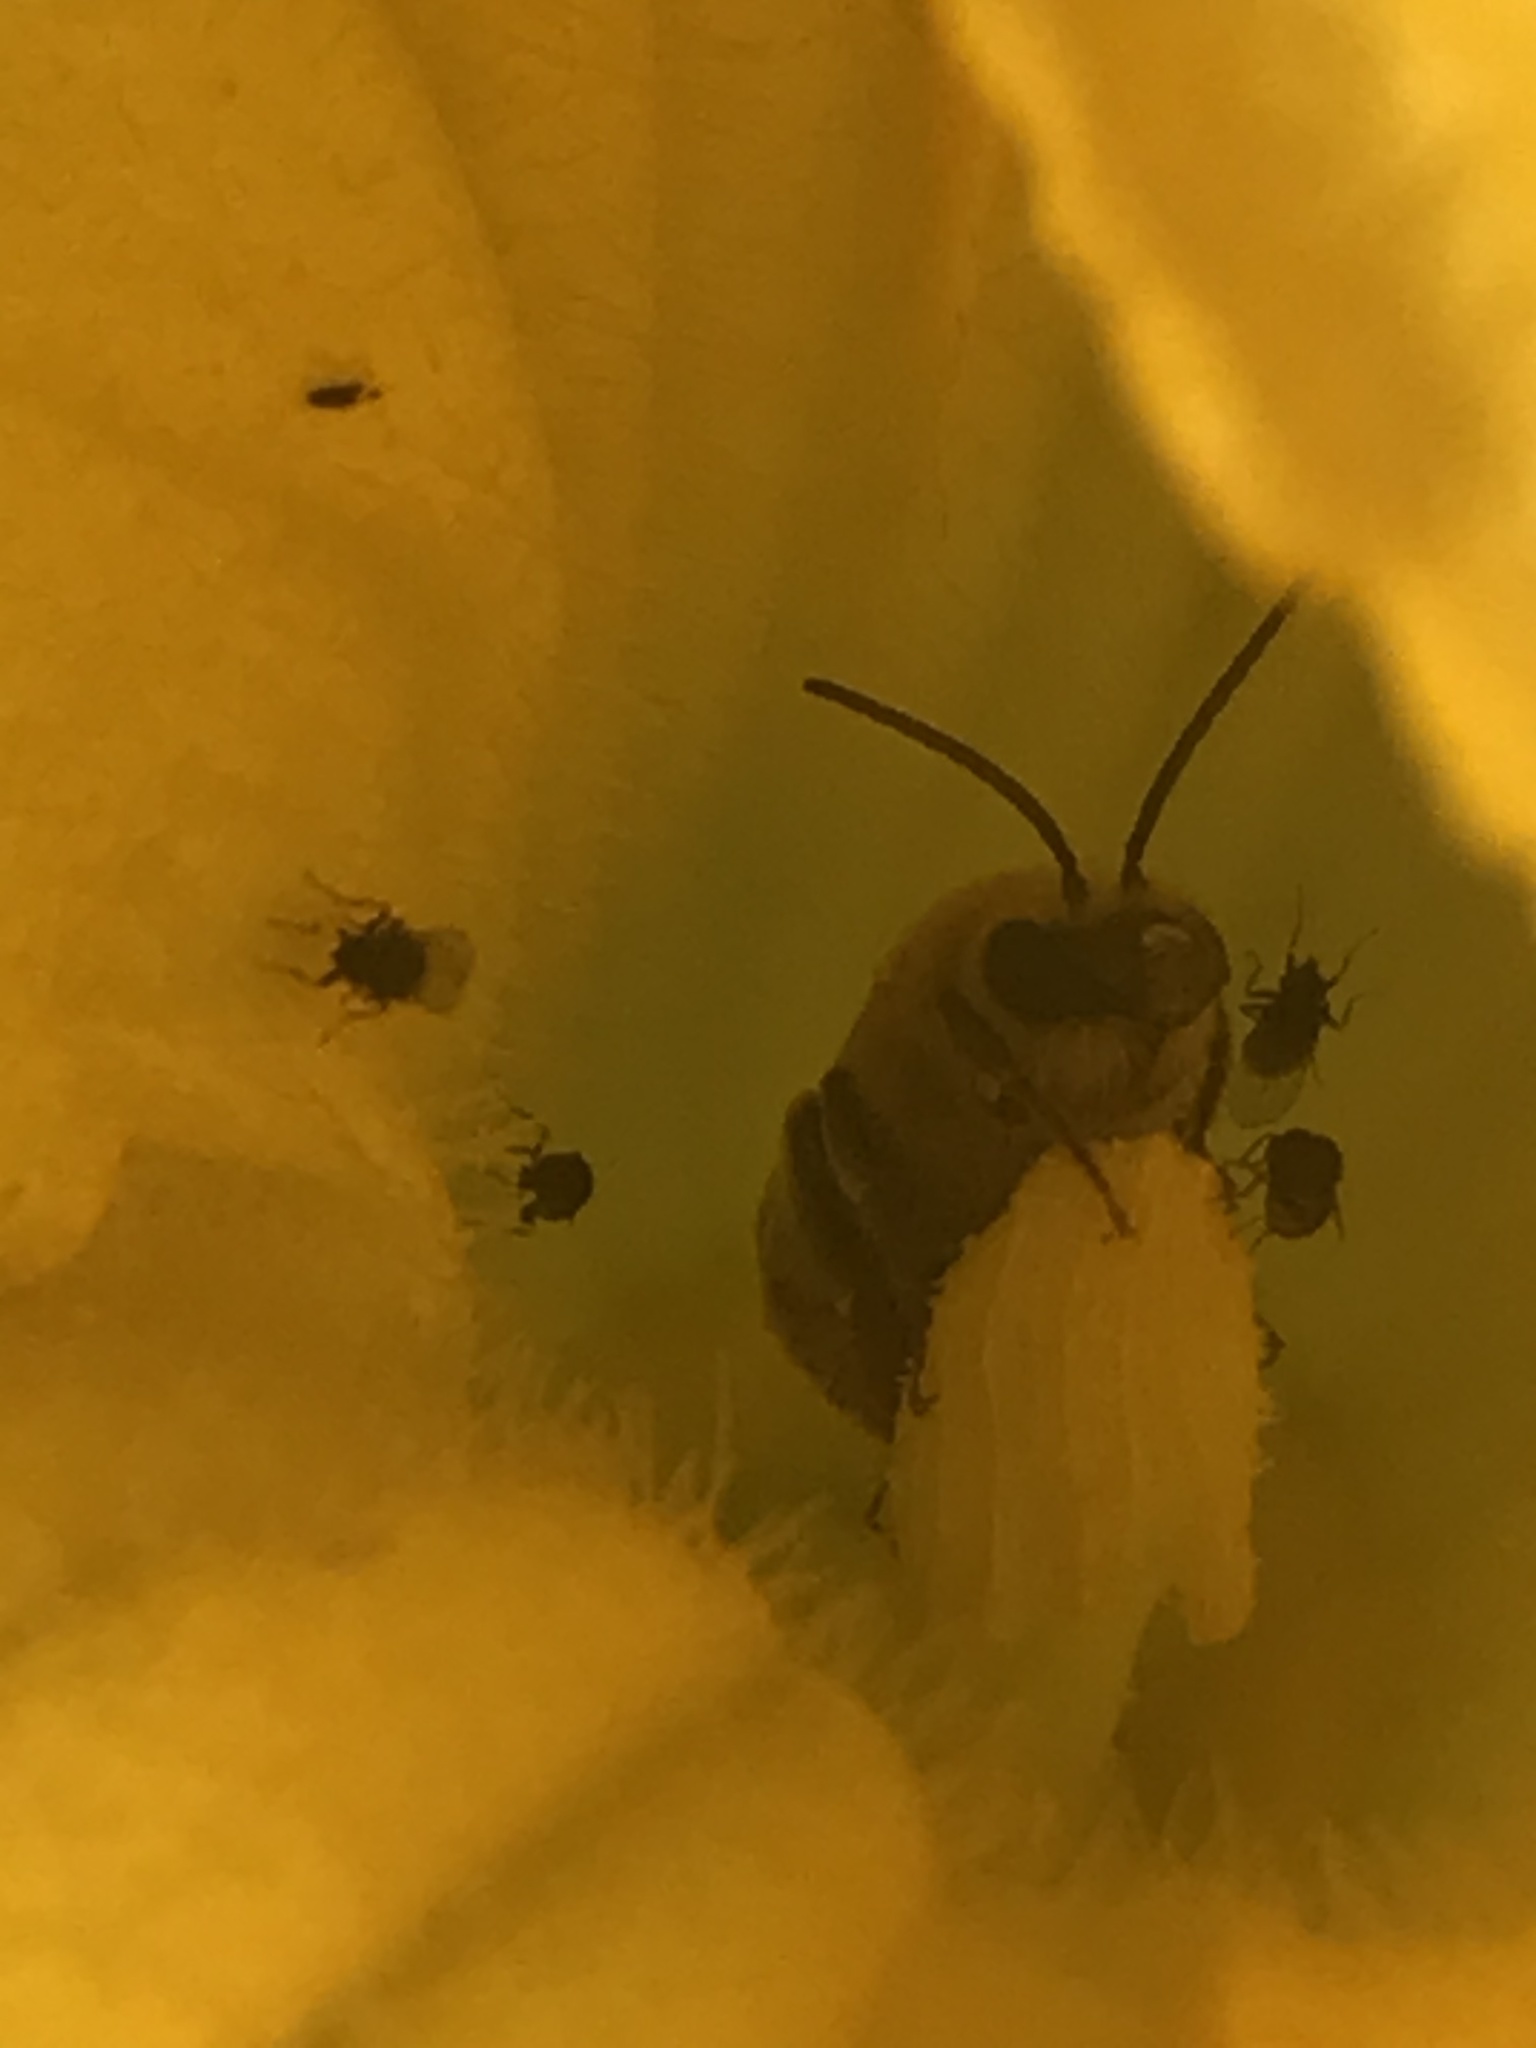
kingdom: Animalia
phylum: Arthropoda
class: Insecta
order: Hymenoptera
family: Apidae
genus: Peponapis
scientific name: Peponapis pruinosa
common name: Pruinose squash bee
